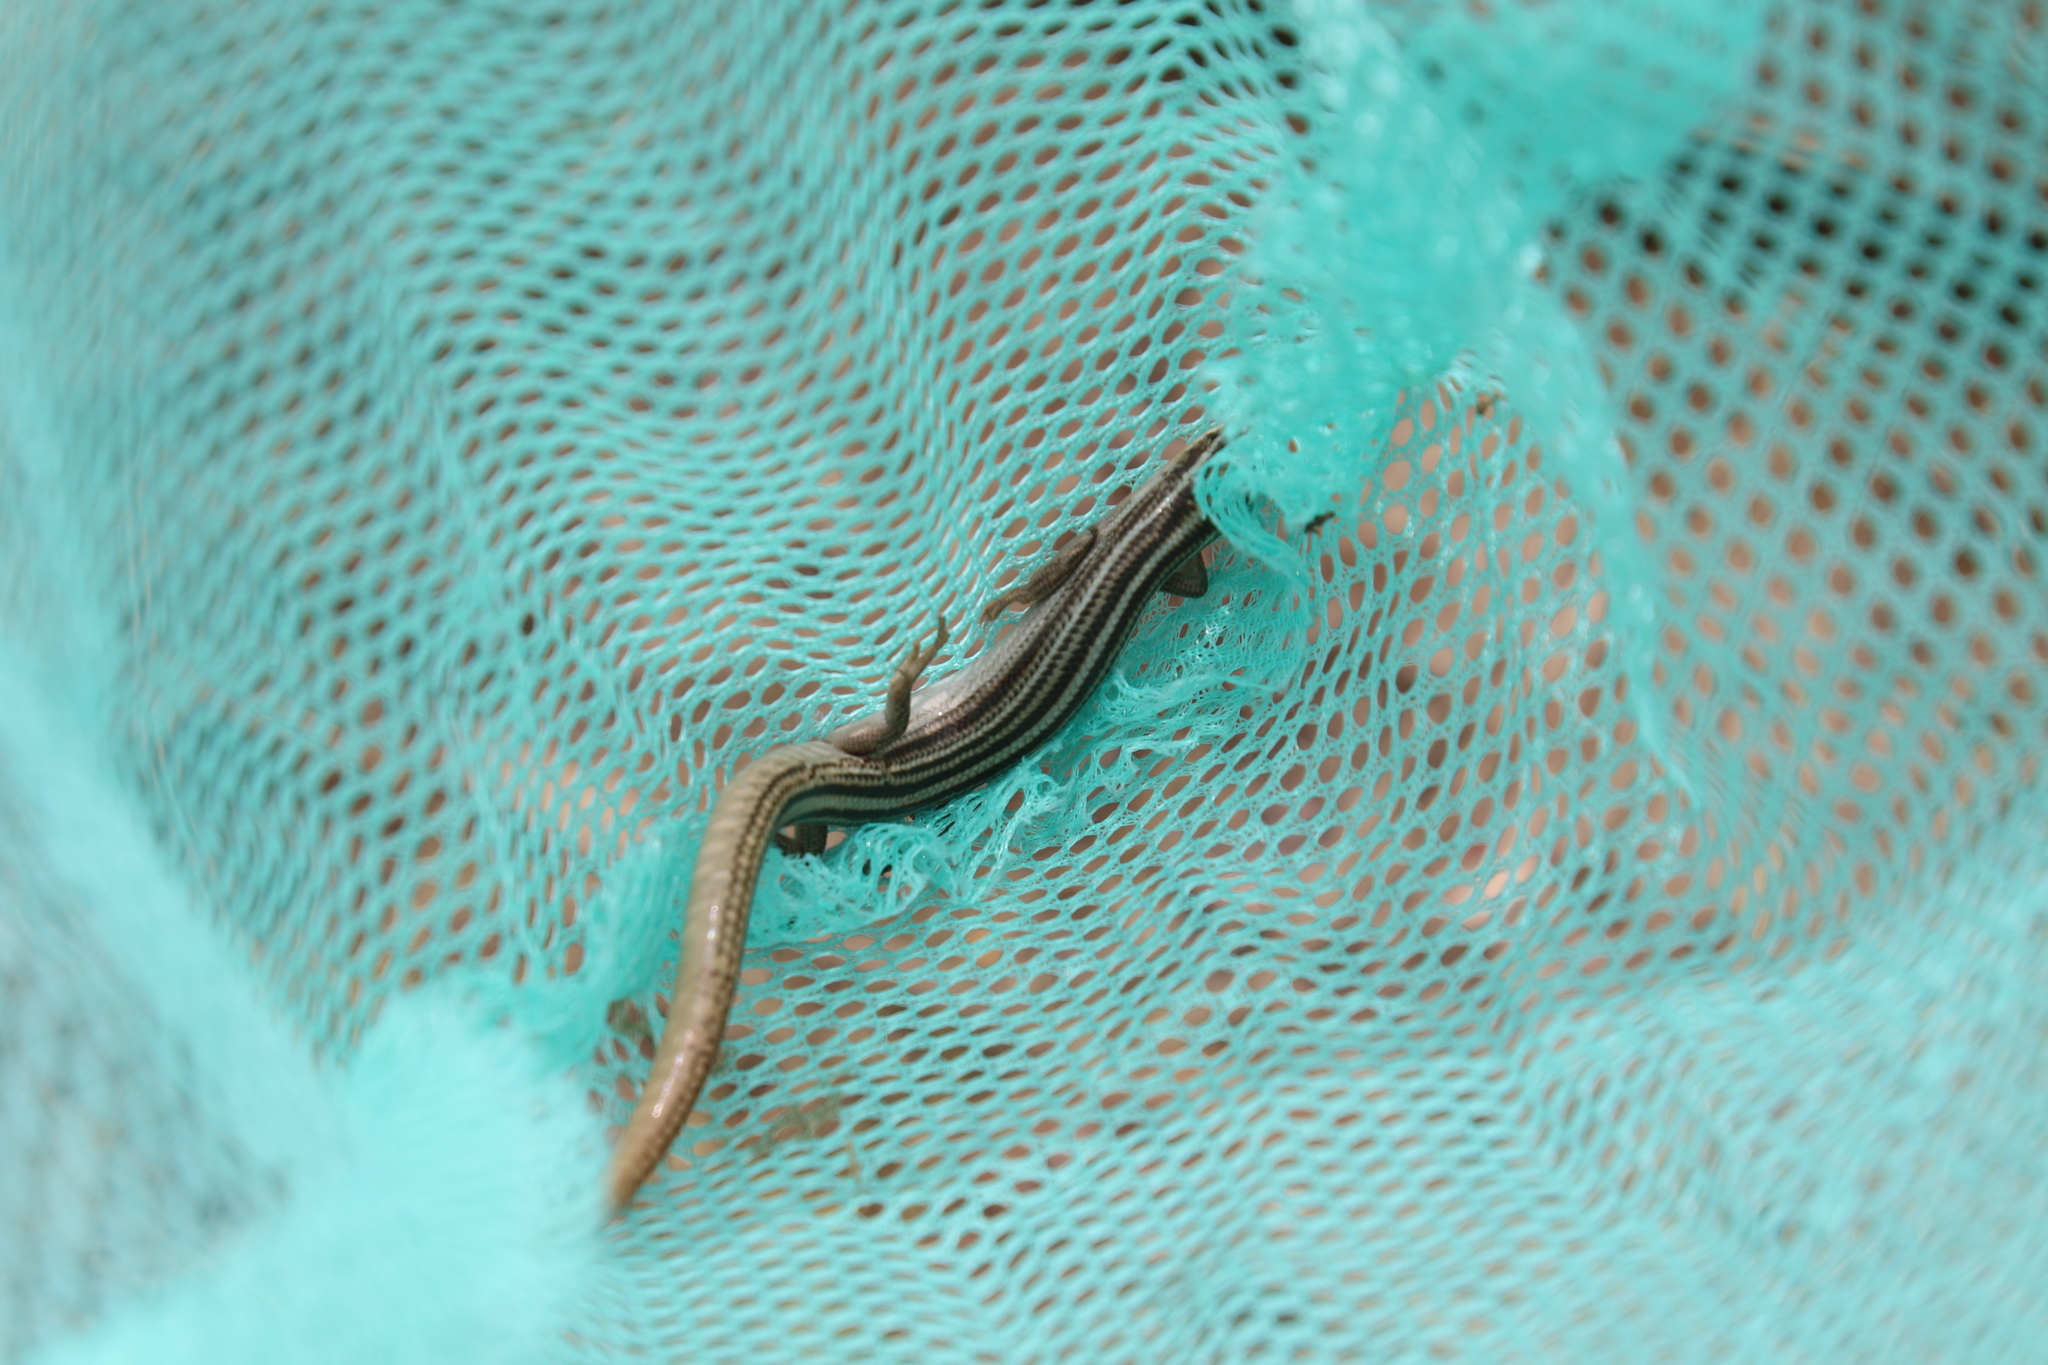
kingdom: Animalia
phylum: Chordata
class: Squamata
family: Scincidae
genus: Plestiodon
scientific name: Plestiodon multivirgatus
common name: Many-lined skink
